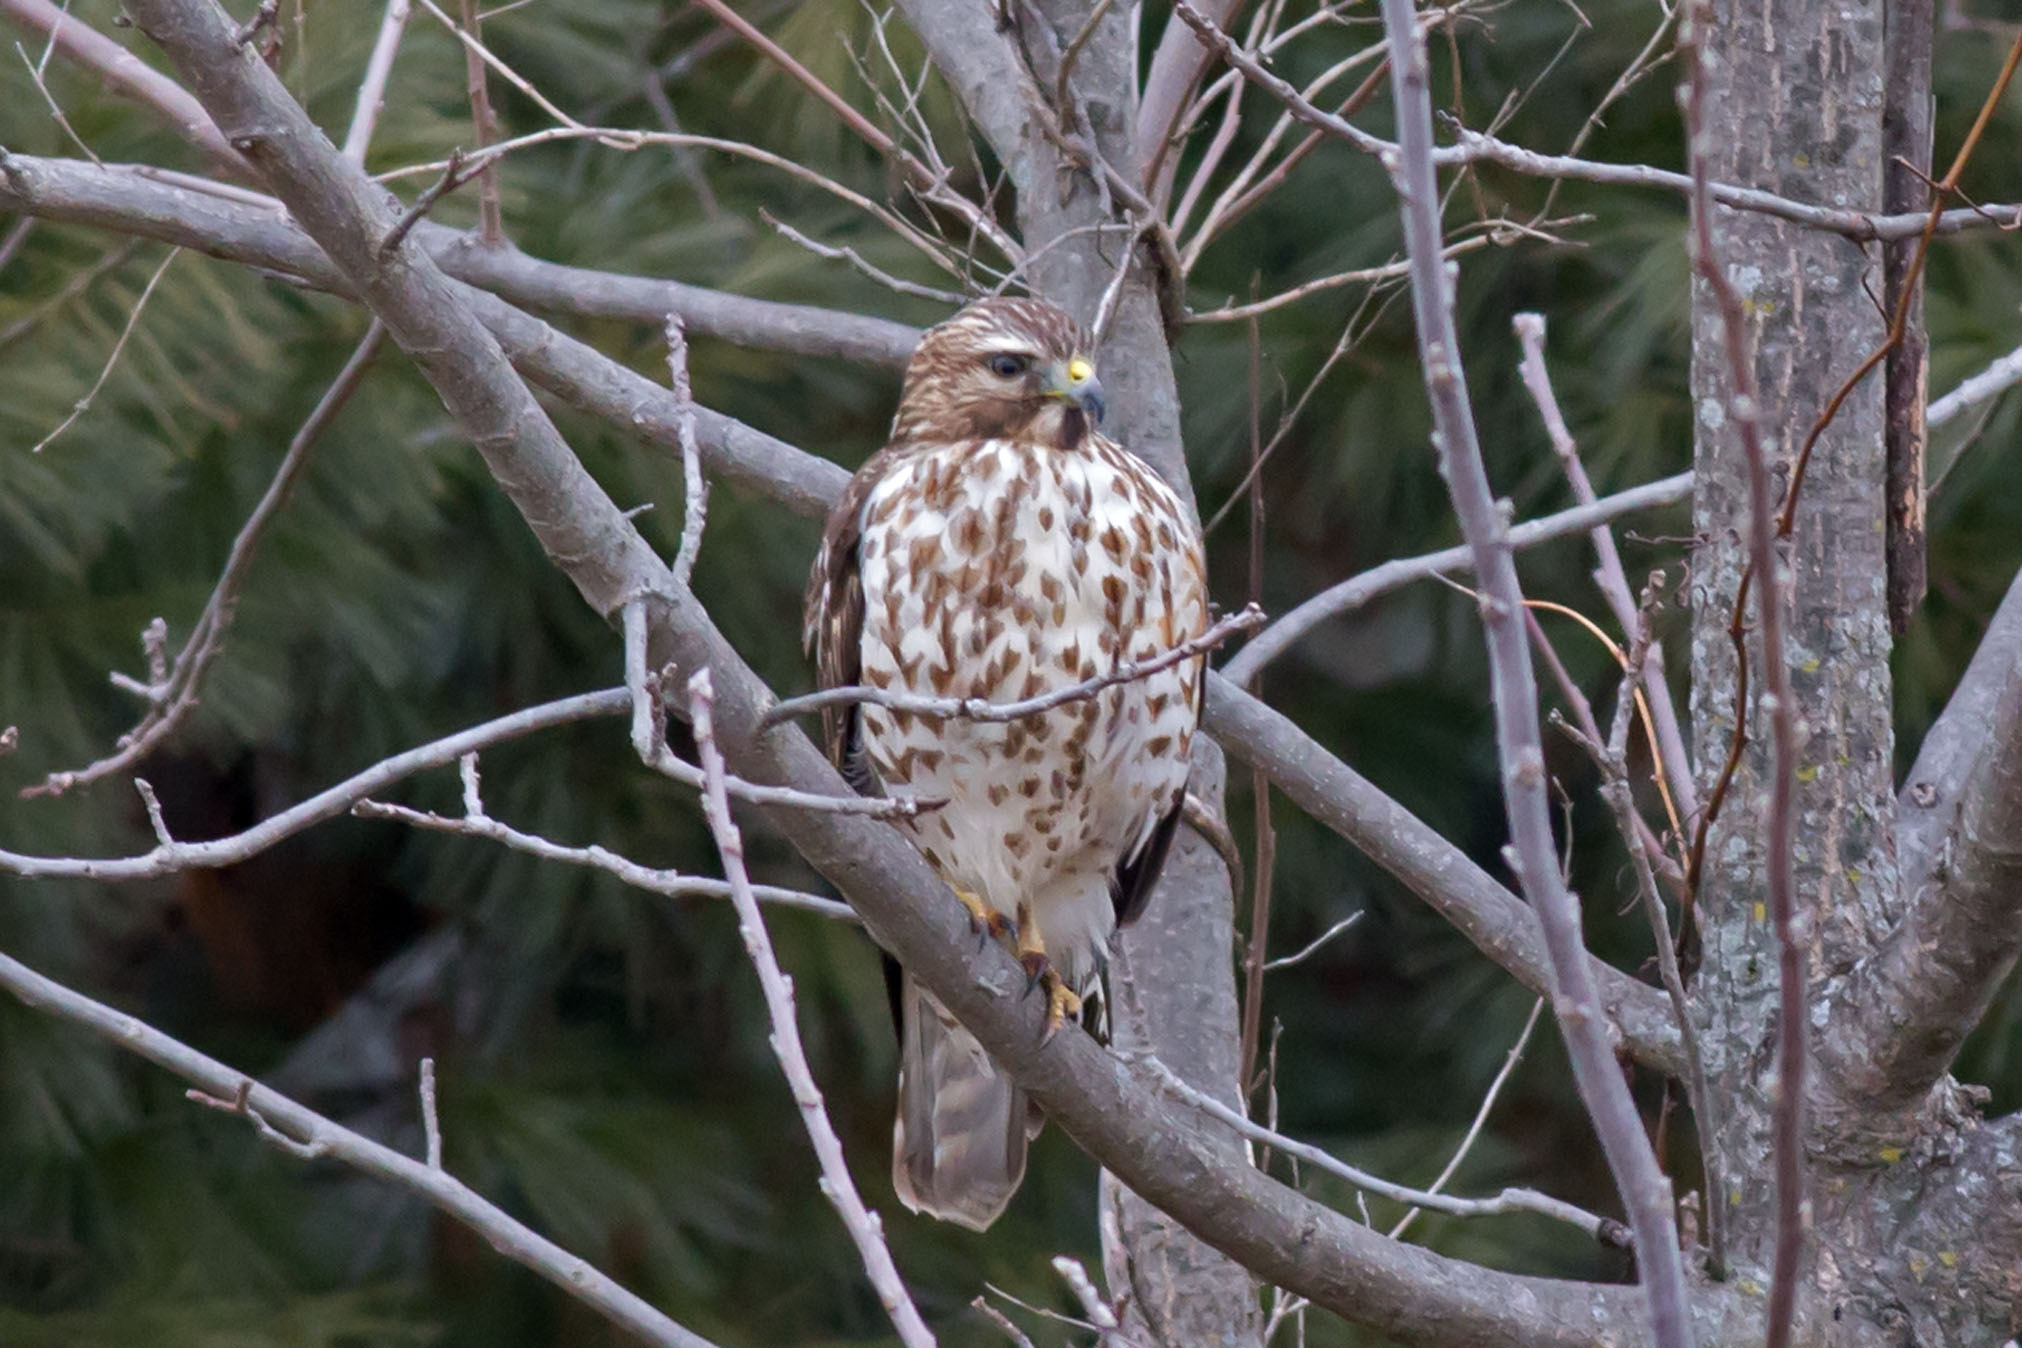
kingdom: Animalia
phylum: Chordata
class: Aves
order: Accipitriformes
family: Accipitridae
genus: Buteo
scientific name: Buteo lineatus
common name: Red-shouldered hawk
